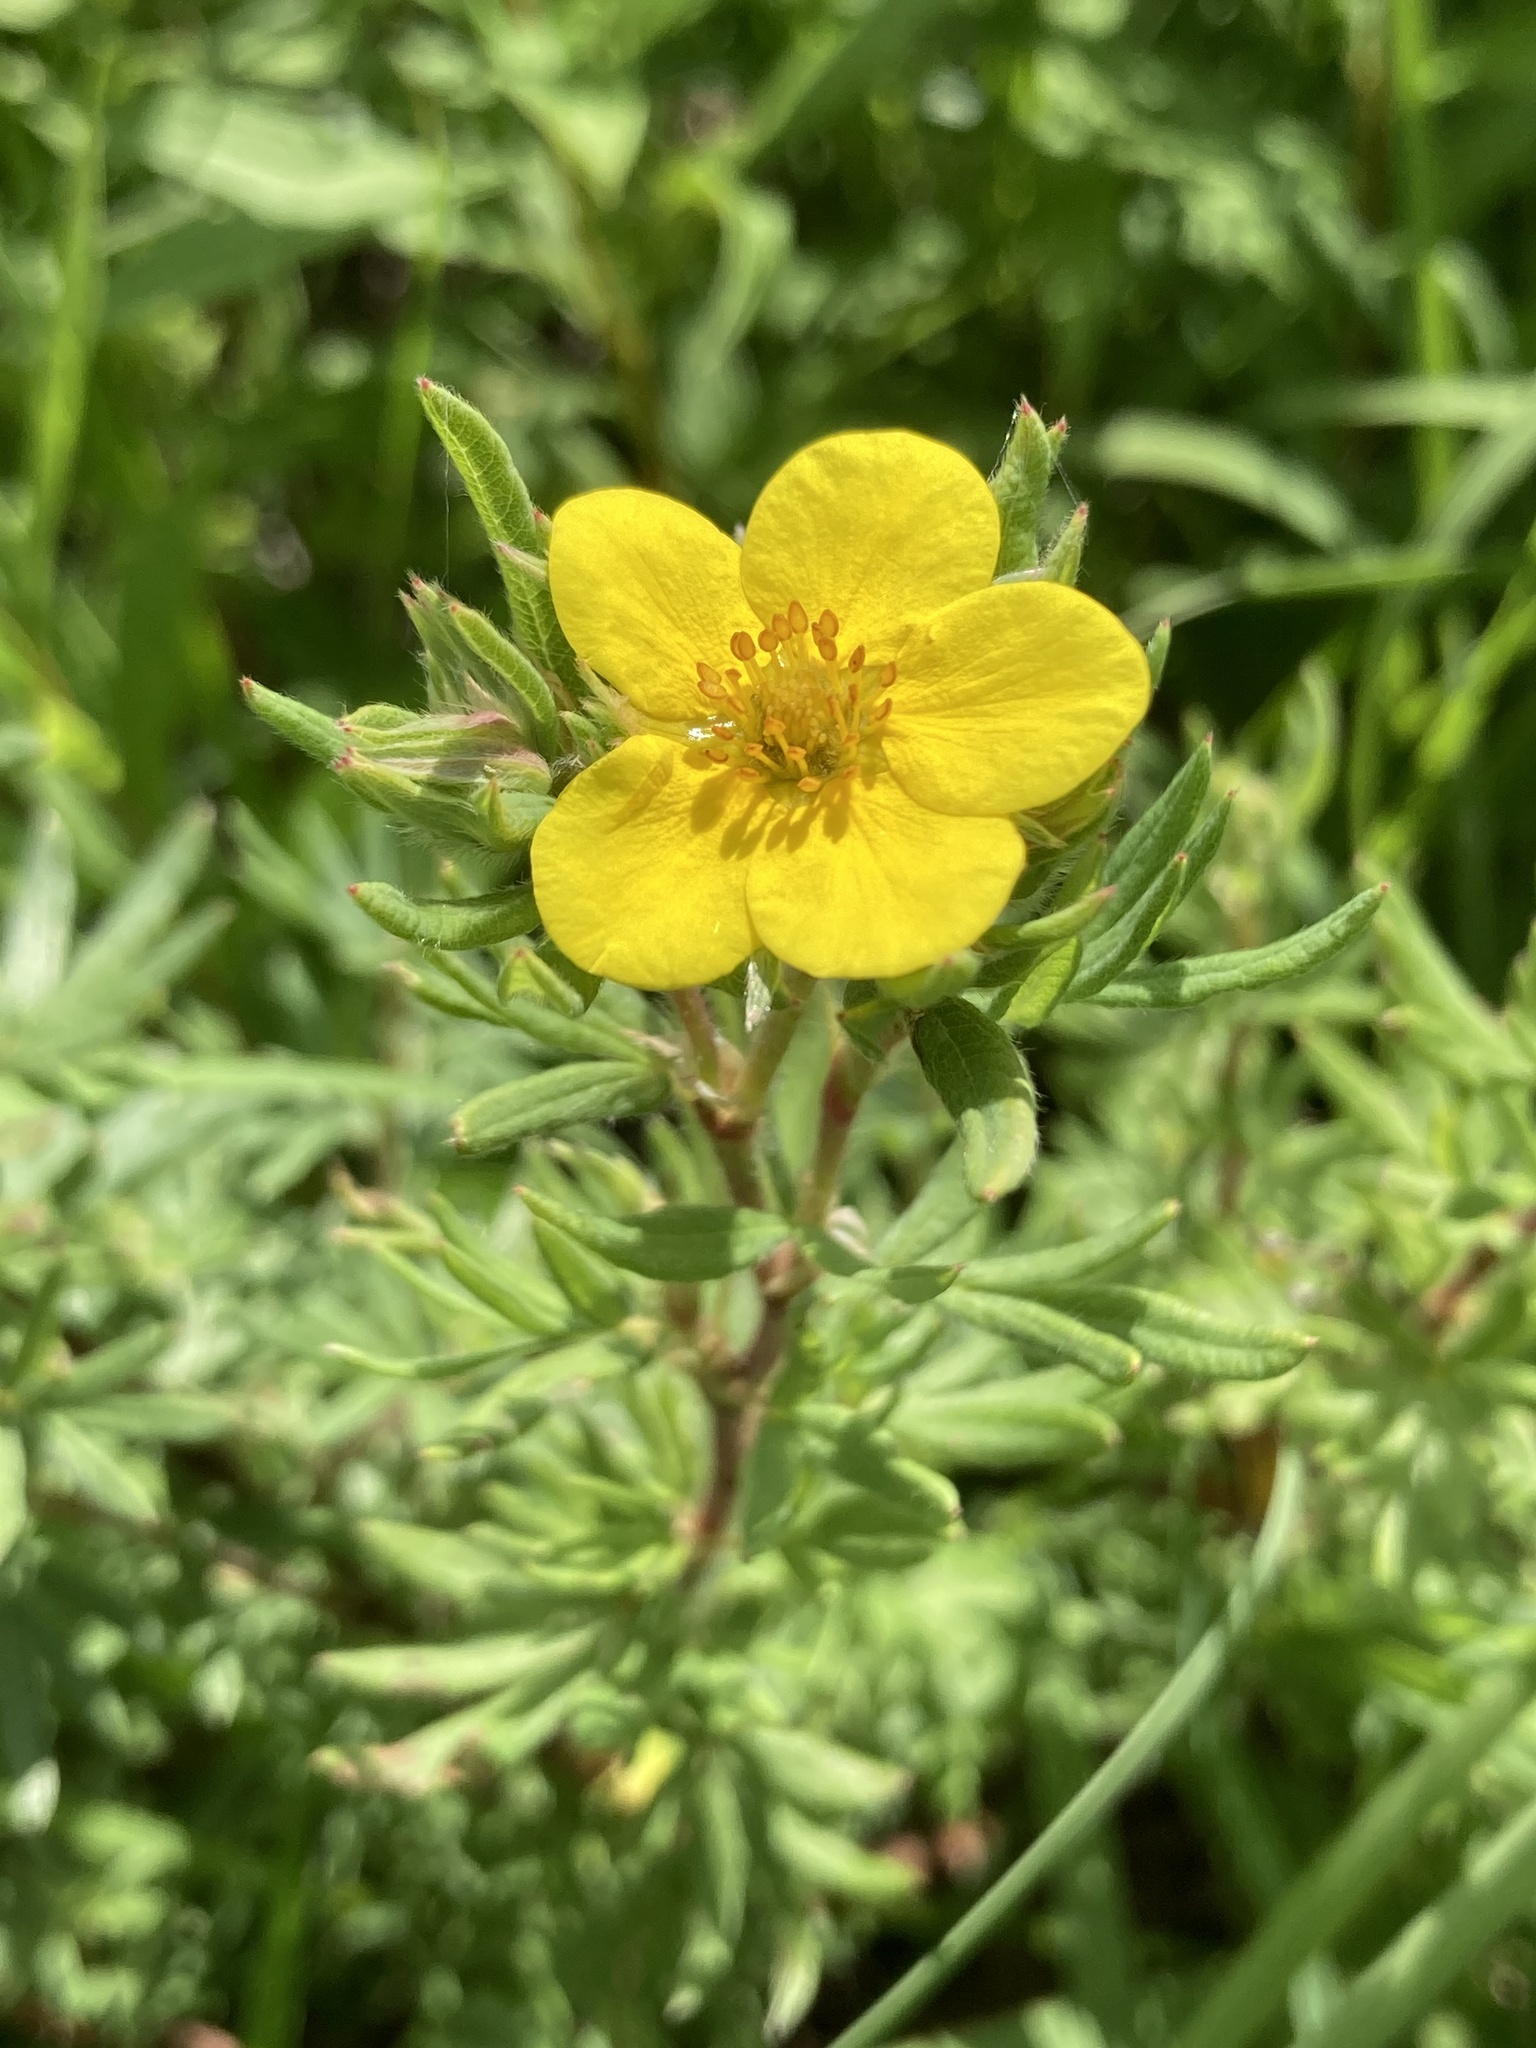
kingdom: Plantae
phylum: Tracheophyta
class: Magnoliopsida
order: Rosales
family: Rosaceae
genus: Dasiphora
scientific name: Dasiphora fruticosa
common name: Shrubby cinquefoil
